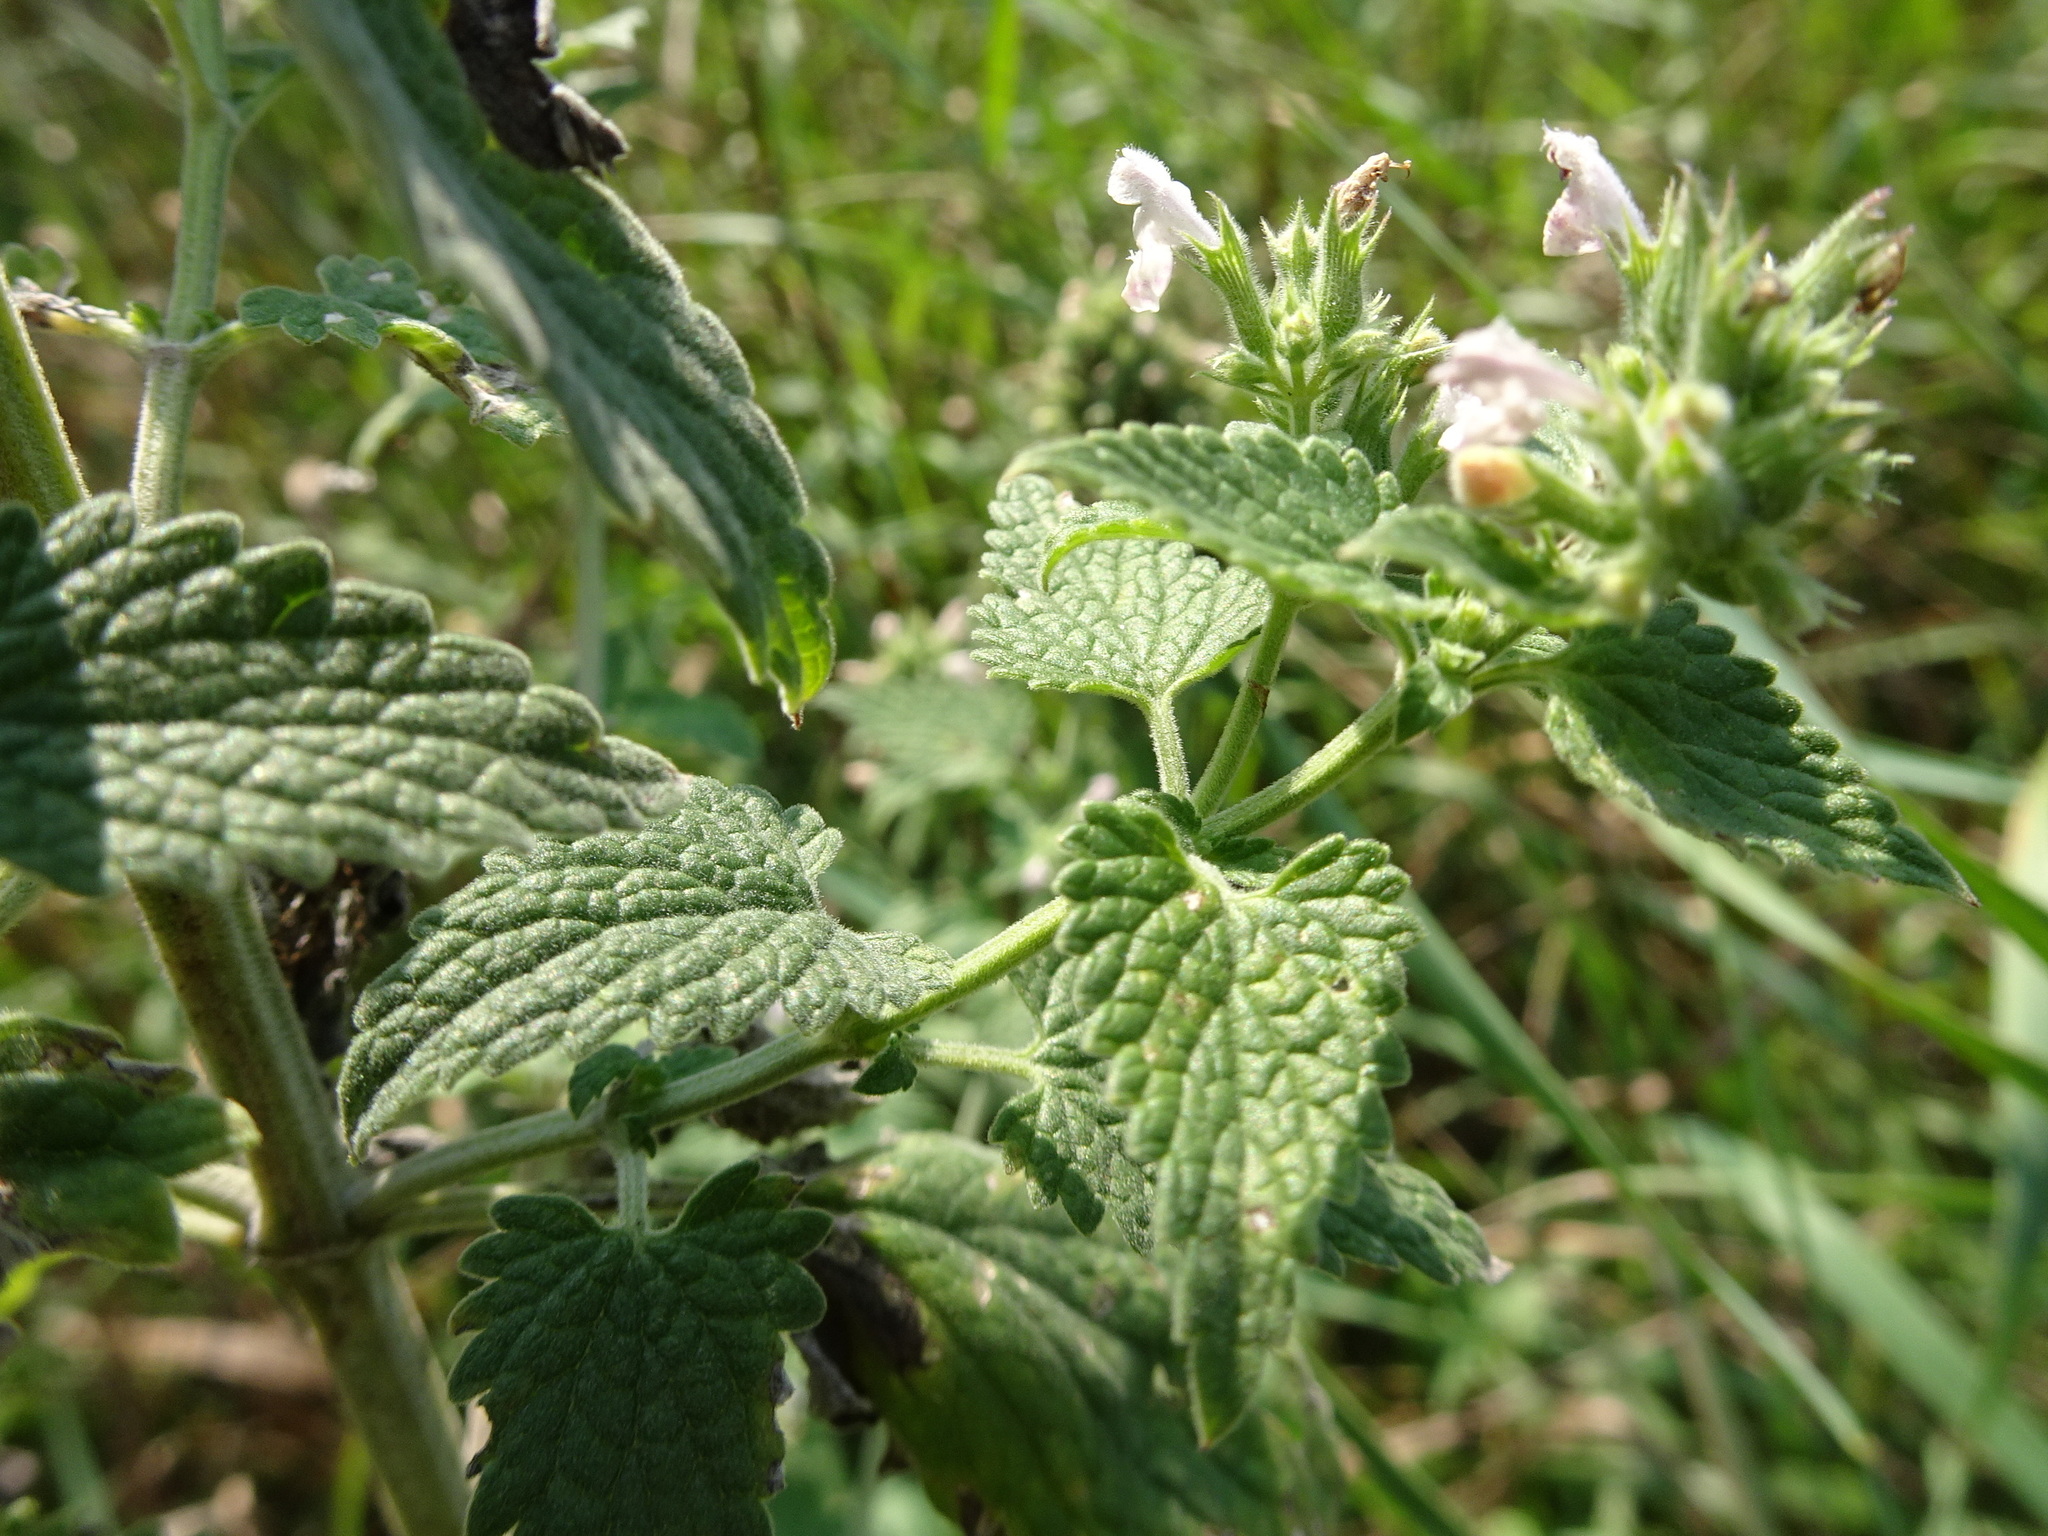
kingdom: Plantae
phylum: Tracheophyta
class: Magnoliopsida
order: Lamiales
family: Lamiaceae
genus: Nepeta
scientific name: Nepeta cataria
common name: Catnip
